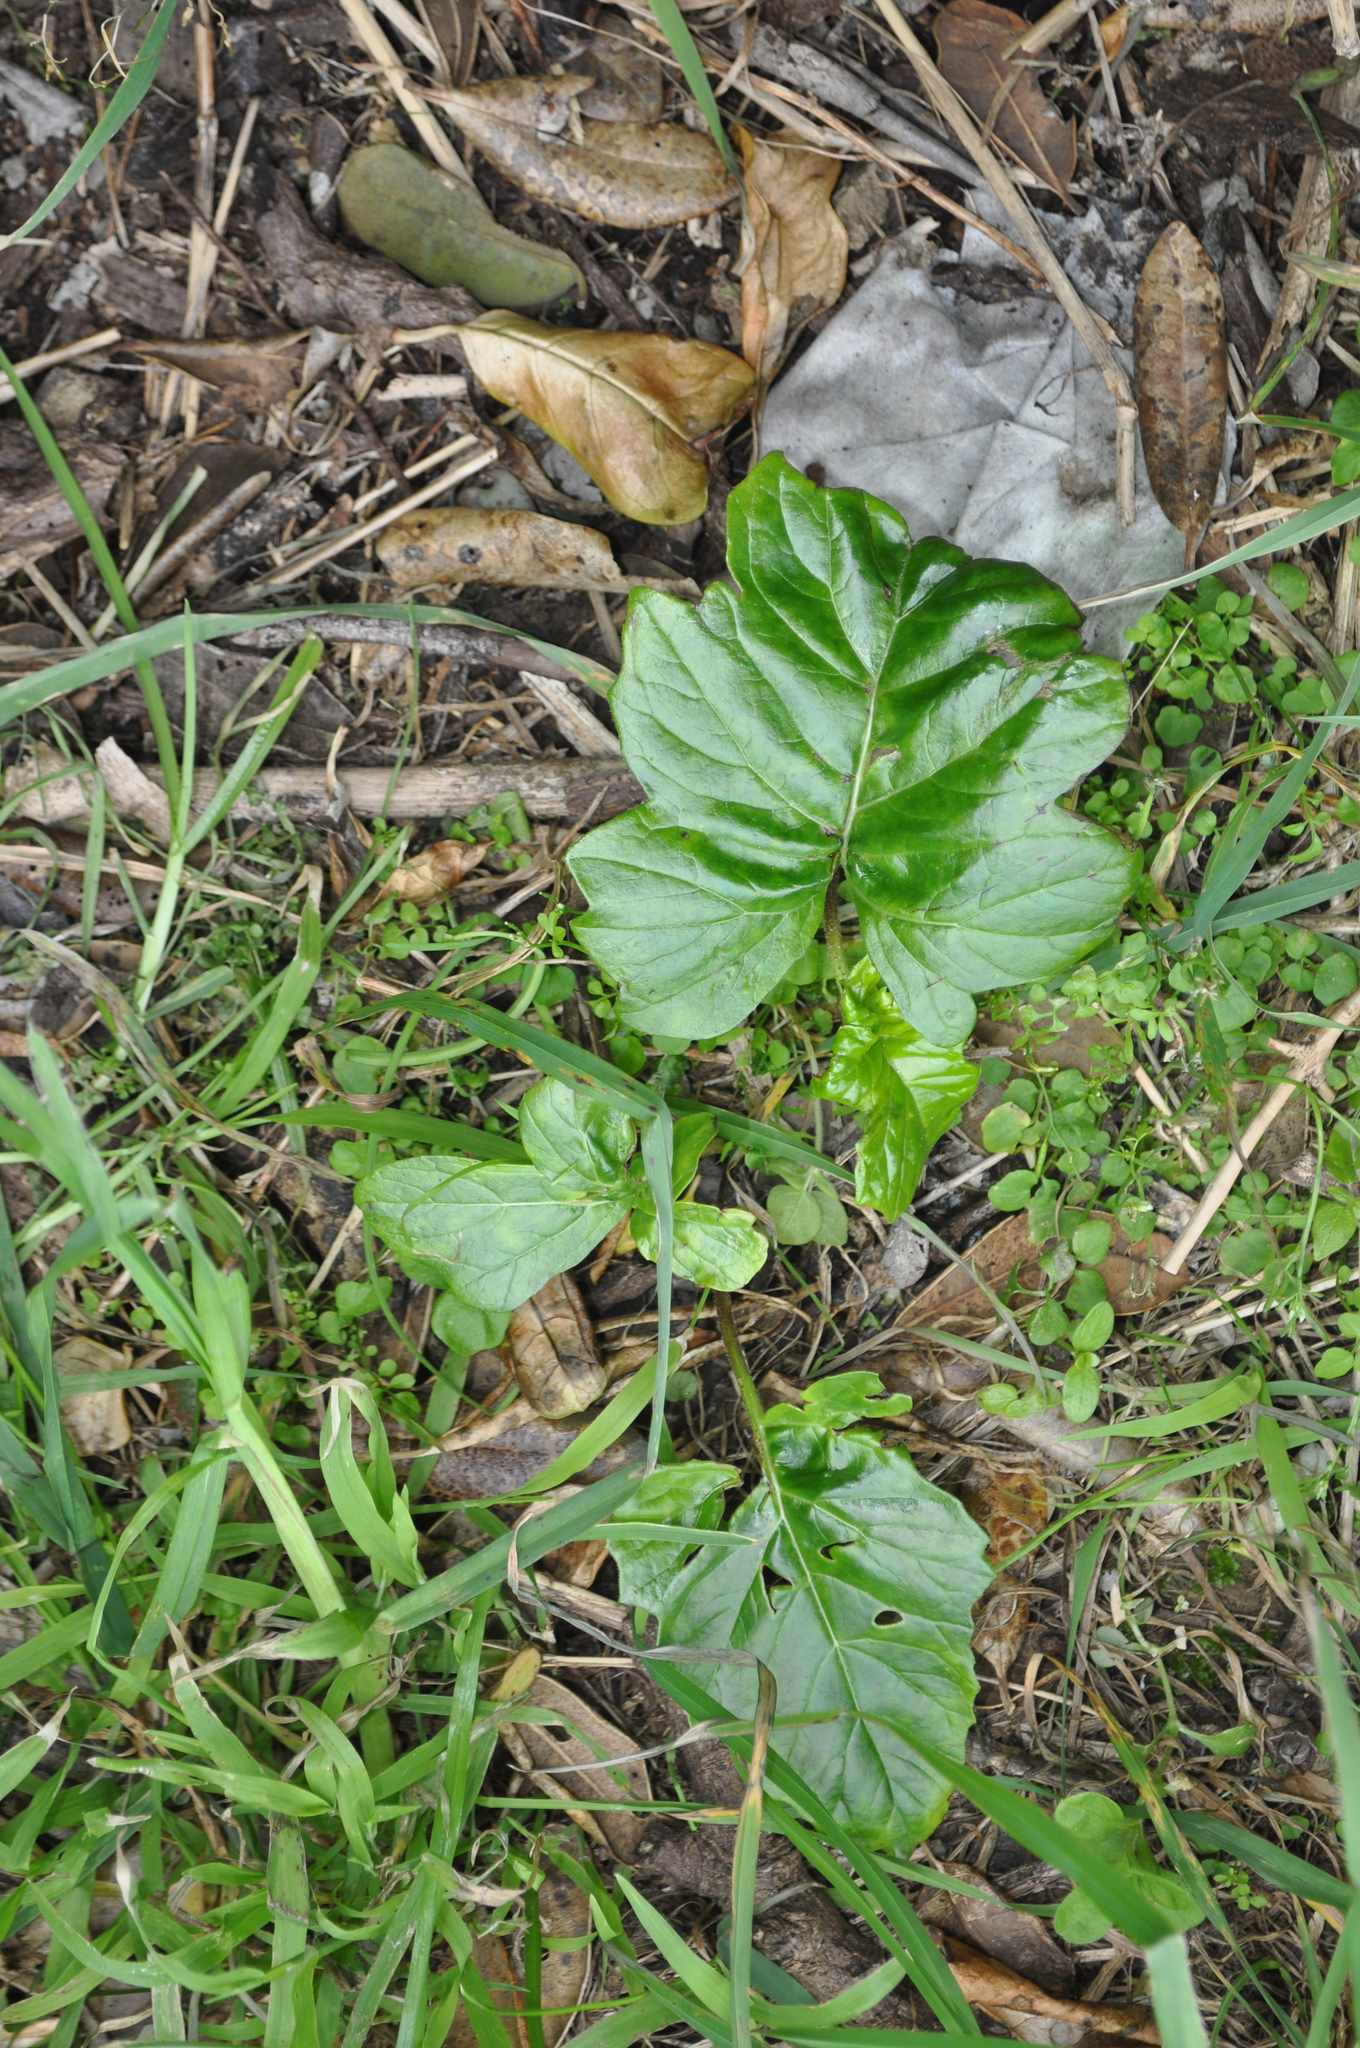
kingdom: Plantae
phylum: Tracheophyta
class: Magnoliopsida
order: Lamiales
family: Acanthaceae
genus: Acanthus
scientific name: Acanthus mollis
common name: Bear's-breech
